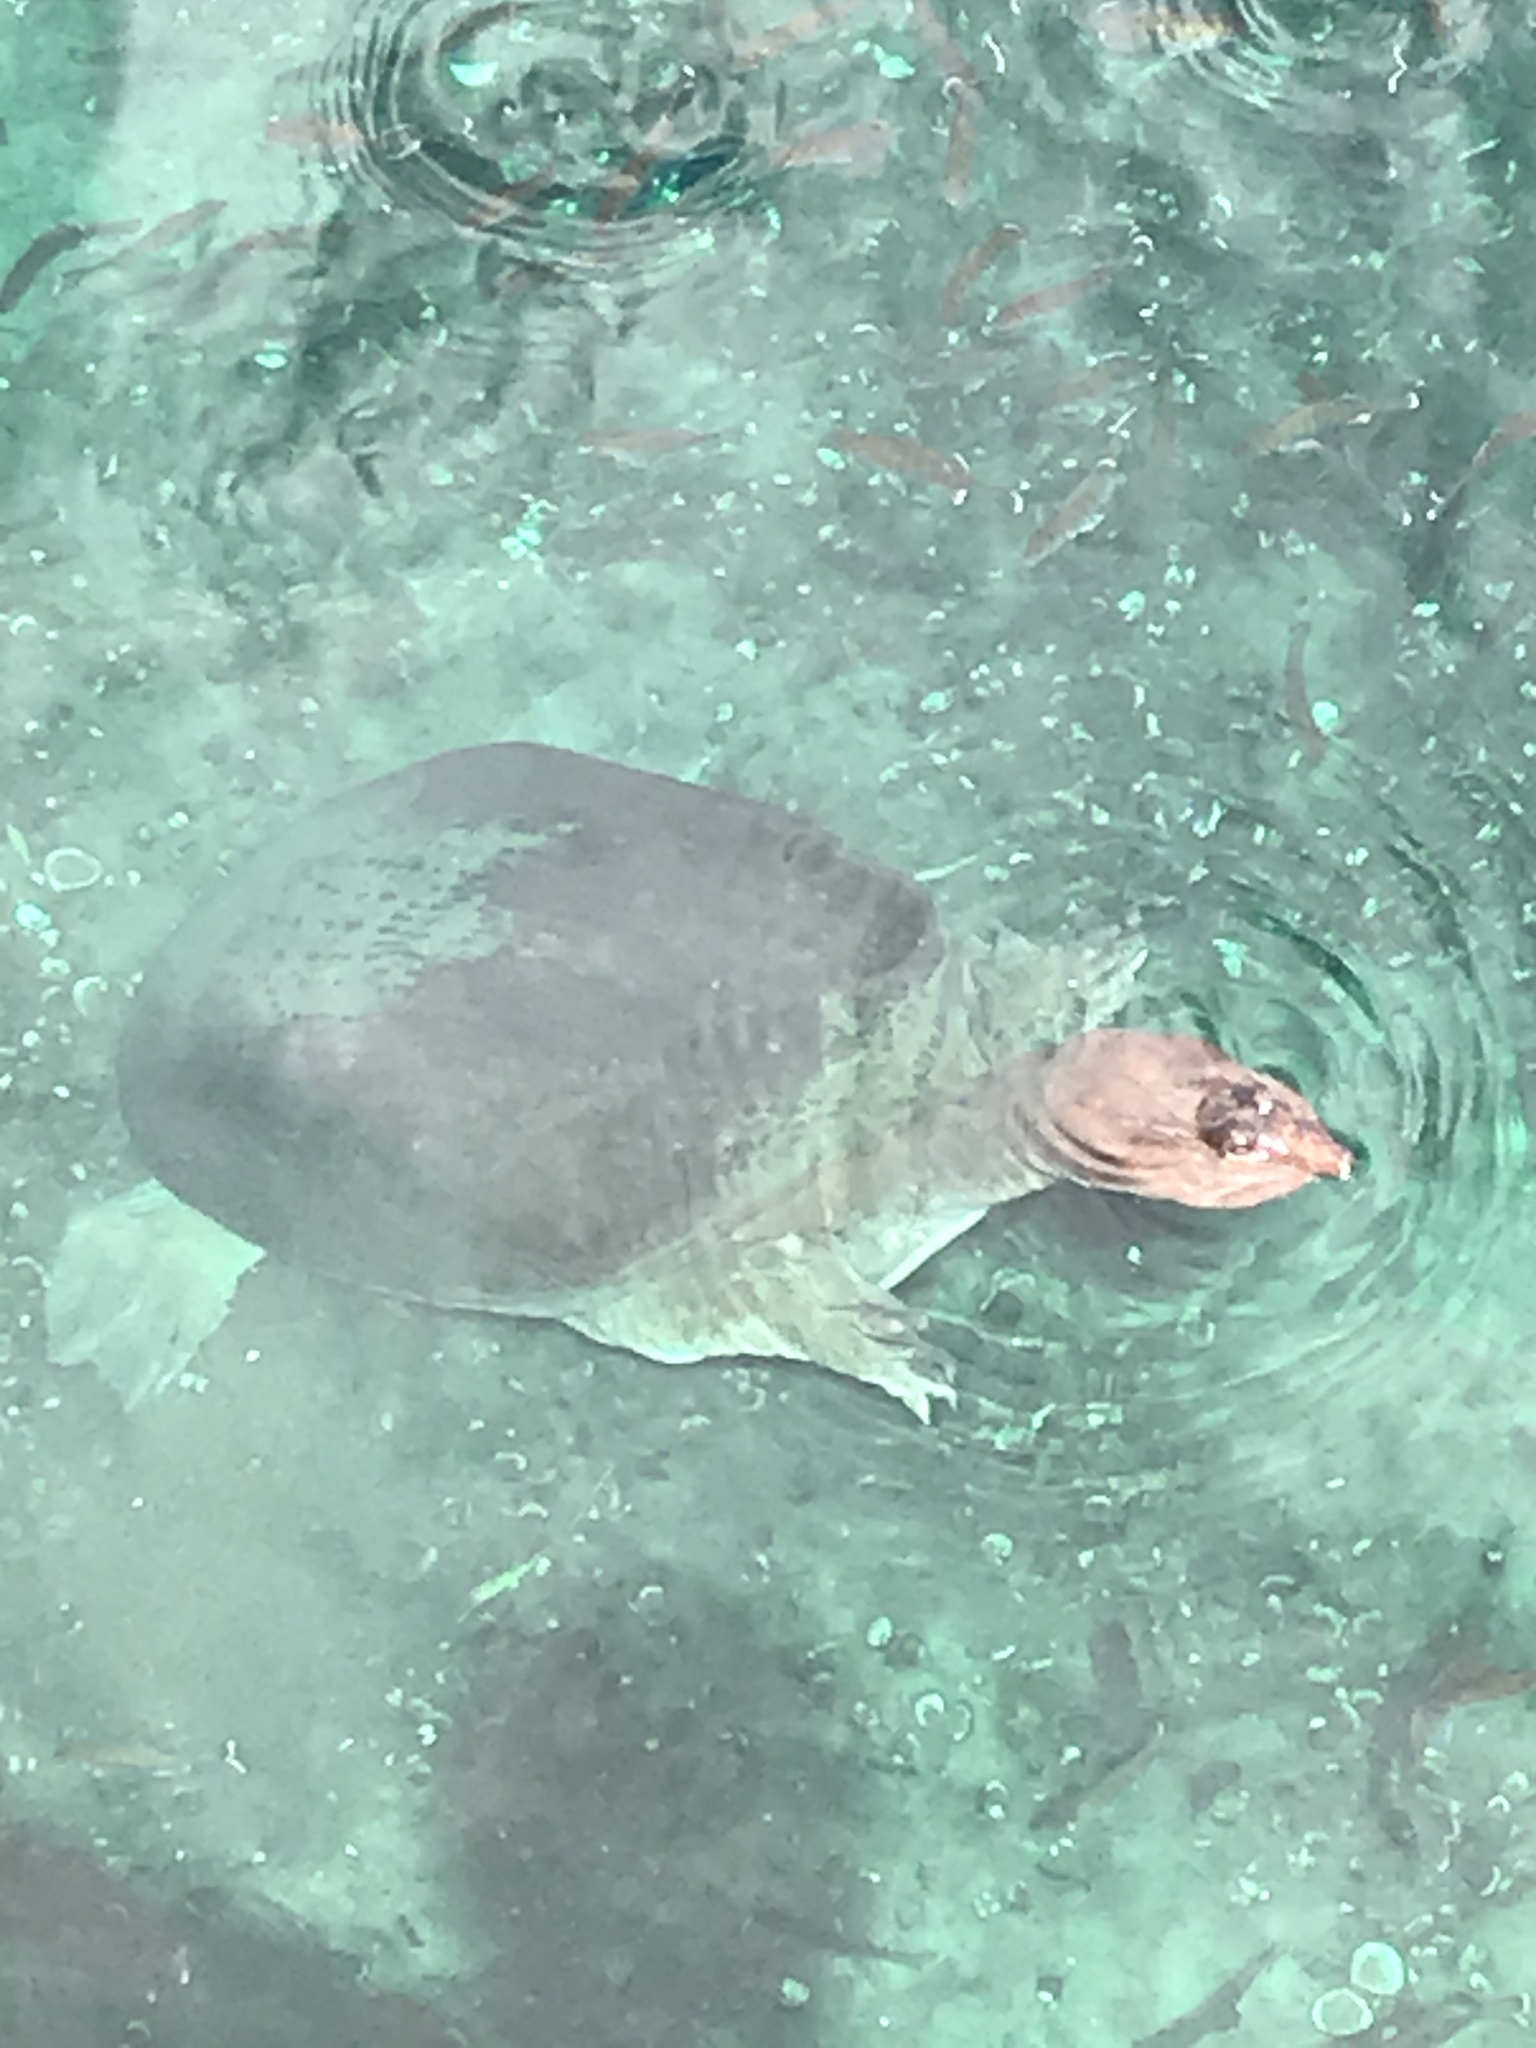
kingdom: Animalia
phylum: Chordata
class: Testudines
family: Trionychidae
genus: Apalone
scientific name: Apalone ferox
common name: Florida softshell turtle
